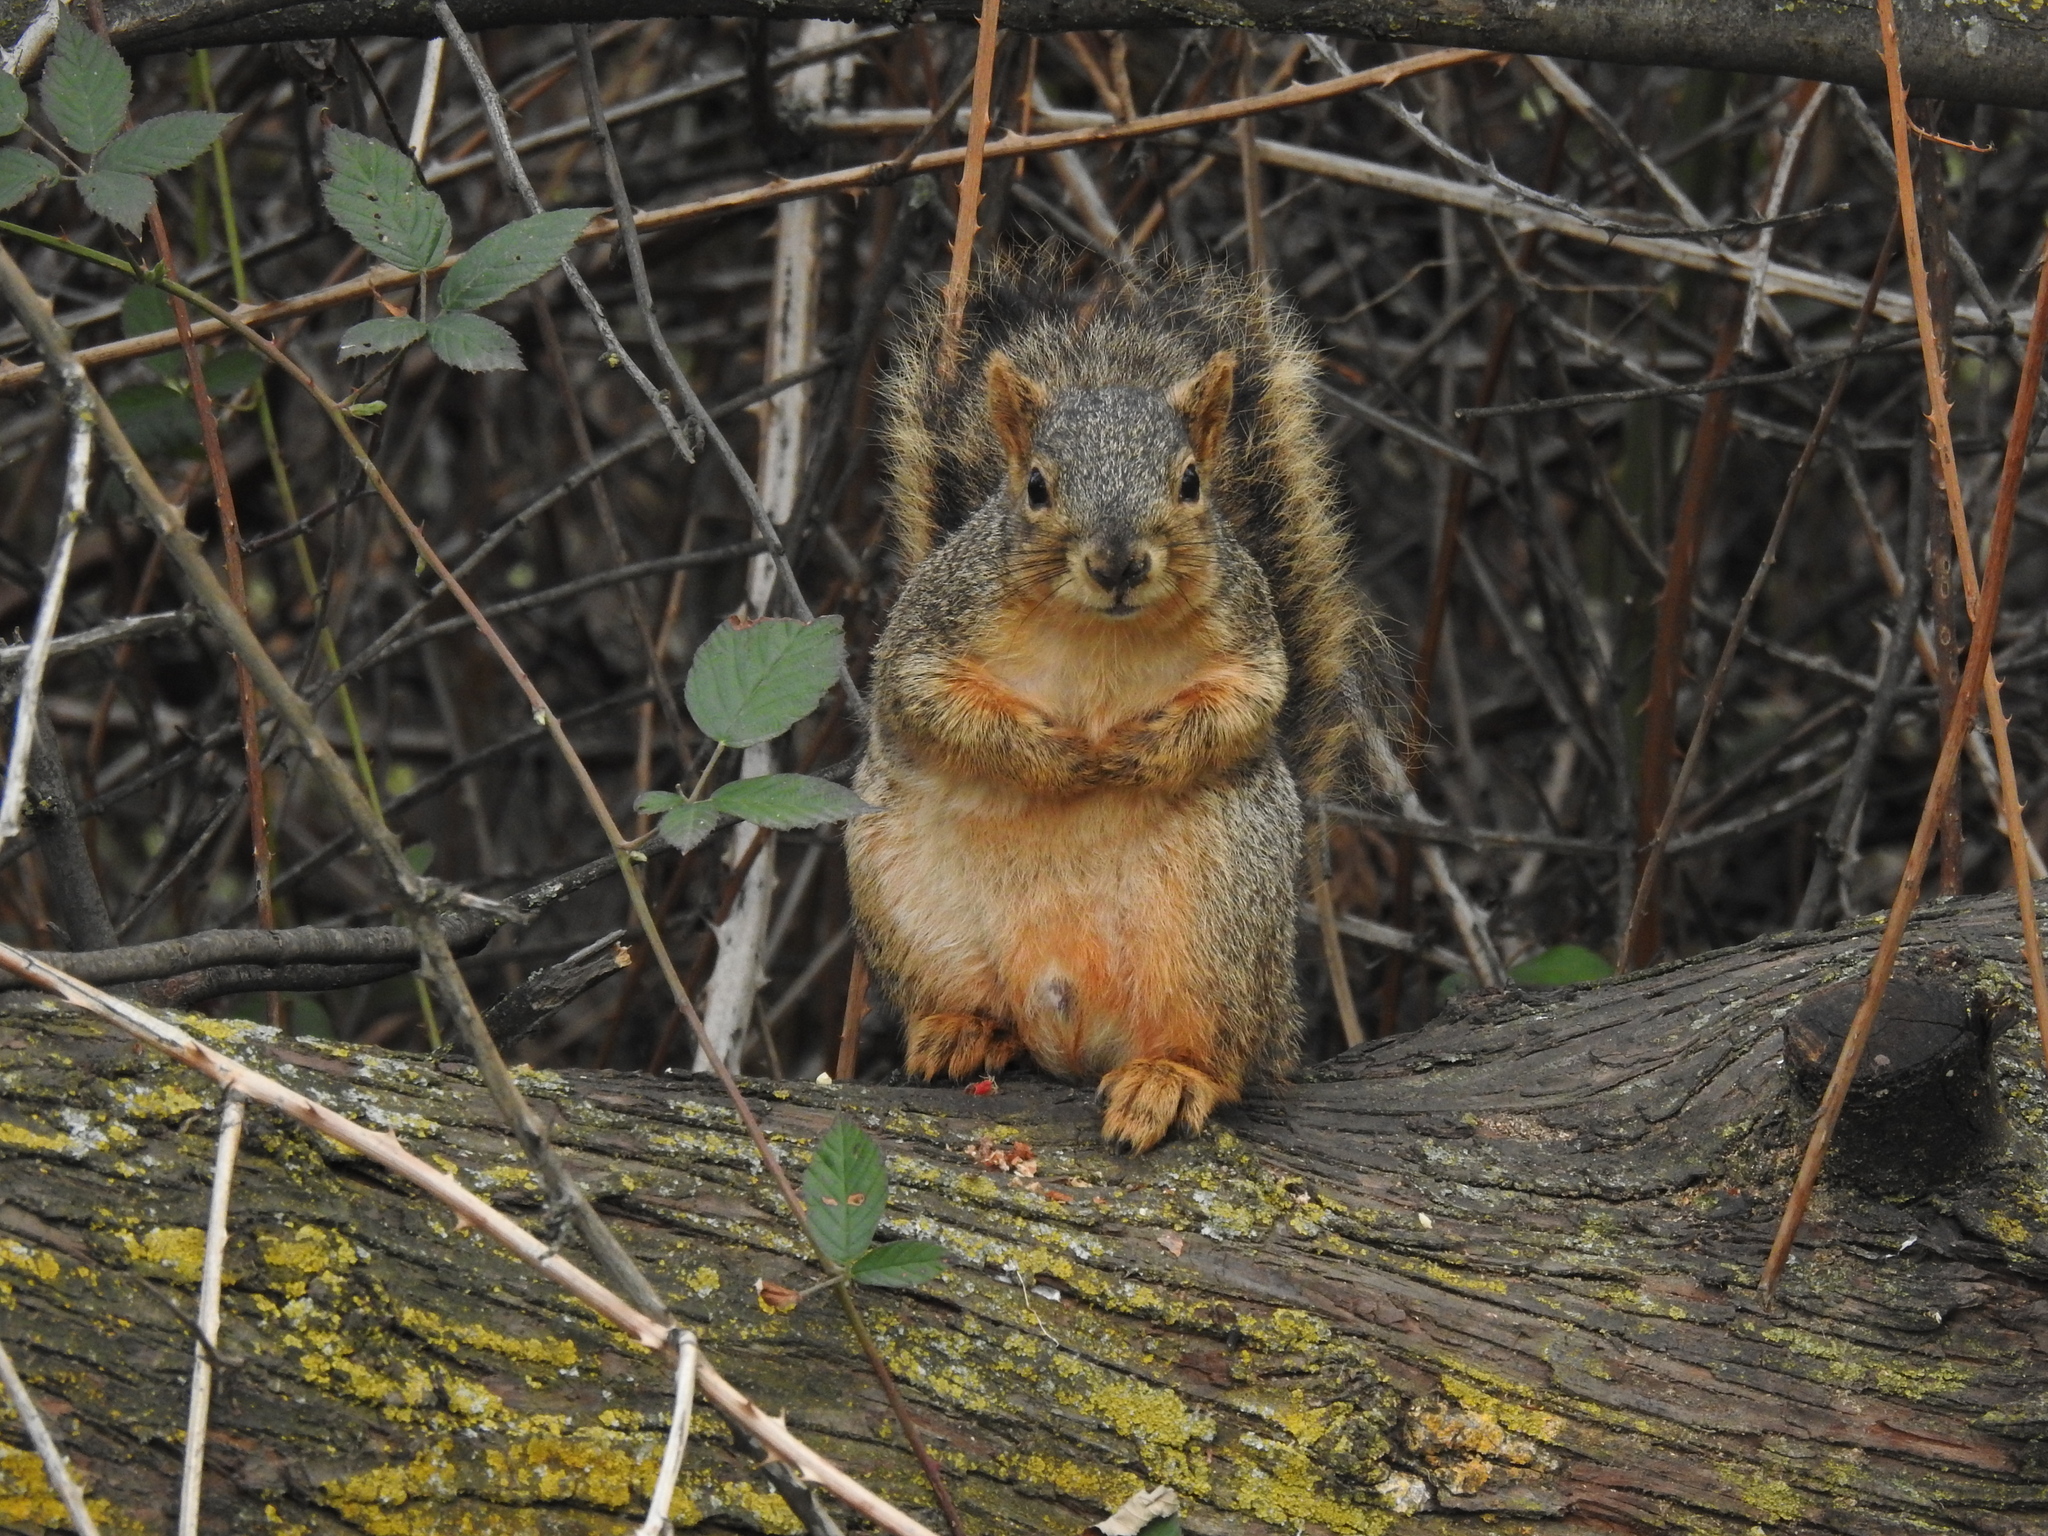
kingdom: Animalia
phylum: Chordata
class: Mammalia
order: Rodentia
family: Sciuridae
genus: Sciurus
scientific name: Sciurus niger
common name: Fox squirrel
